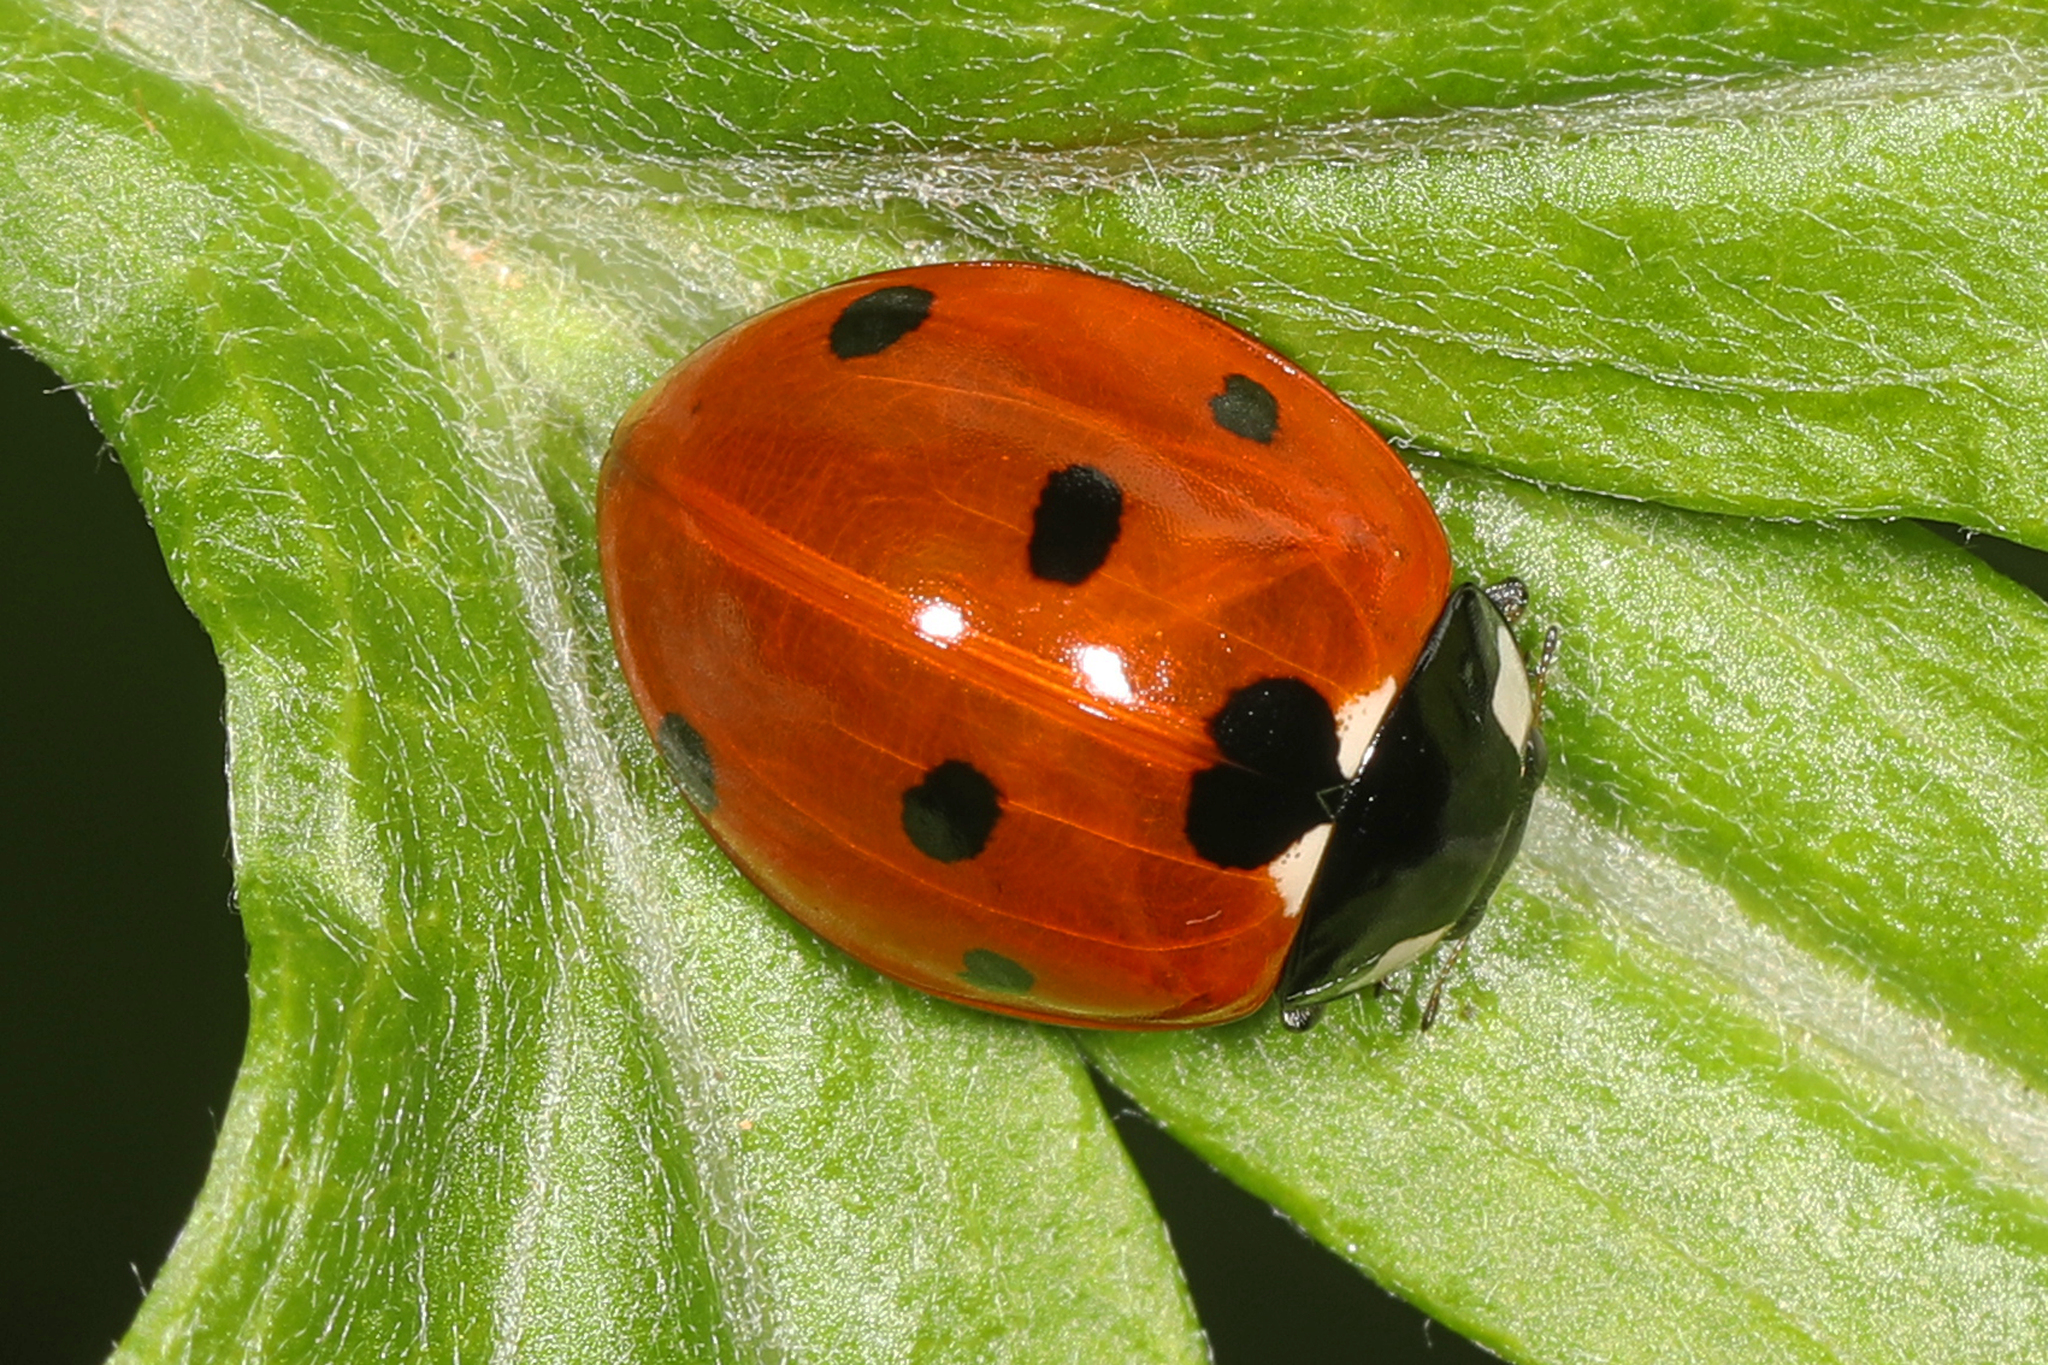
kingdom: Animalia
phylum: Arthropoda
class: Insecta
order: Coleoptera
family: Coccinellidae
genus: Coccinella
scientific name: Coccinella septempunctata
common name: Sevenspotted lady beetle
